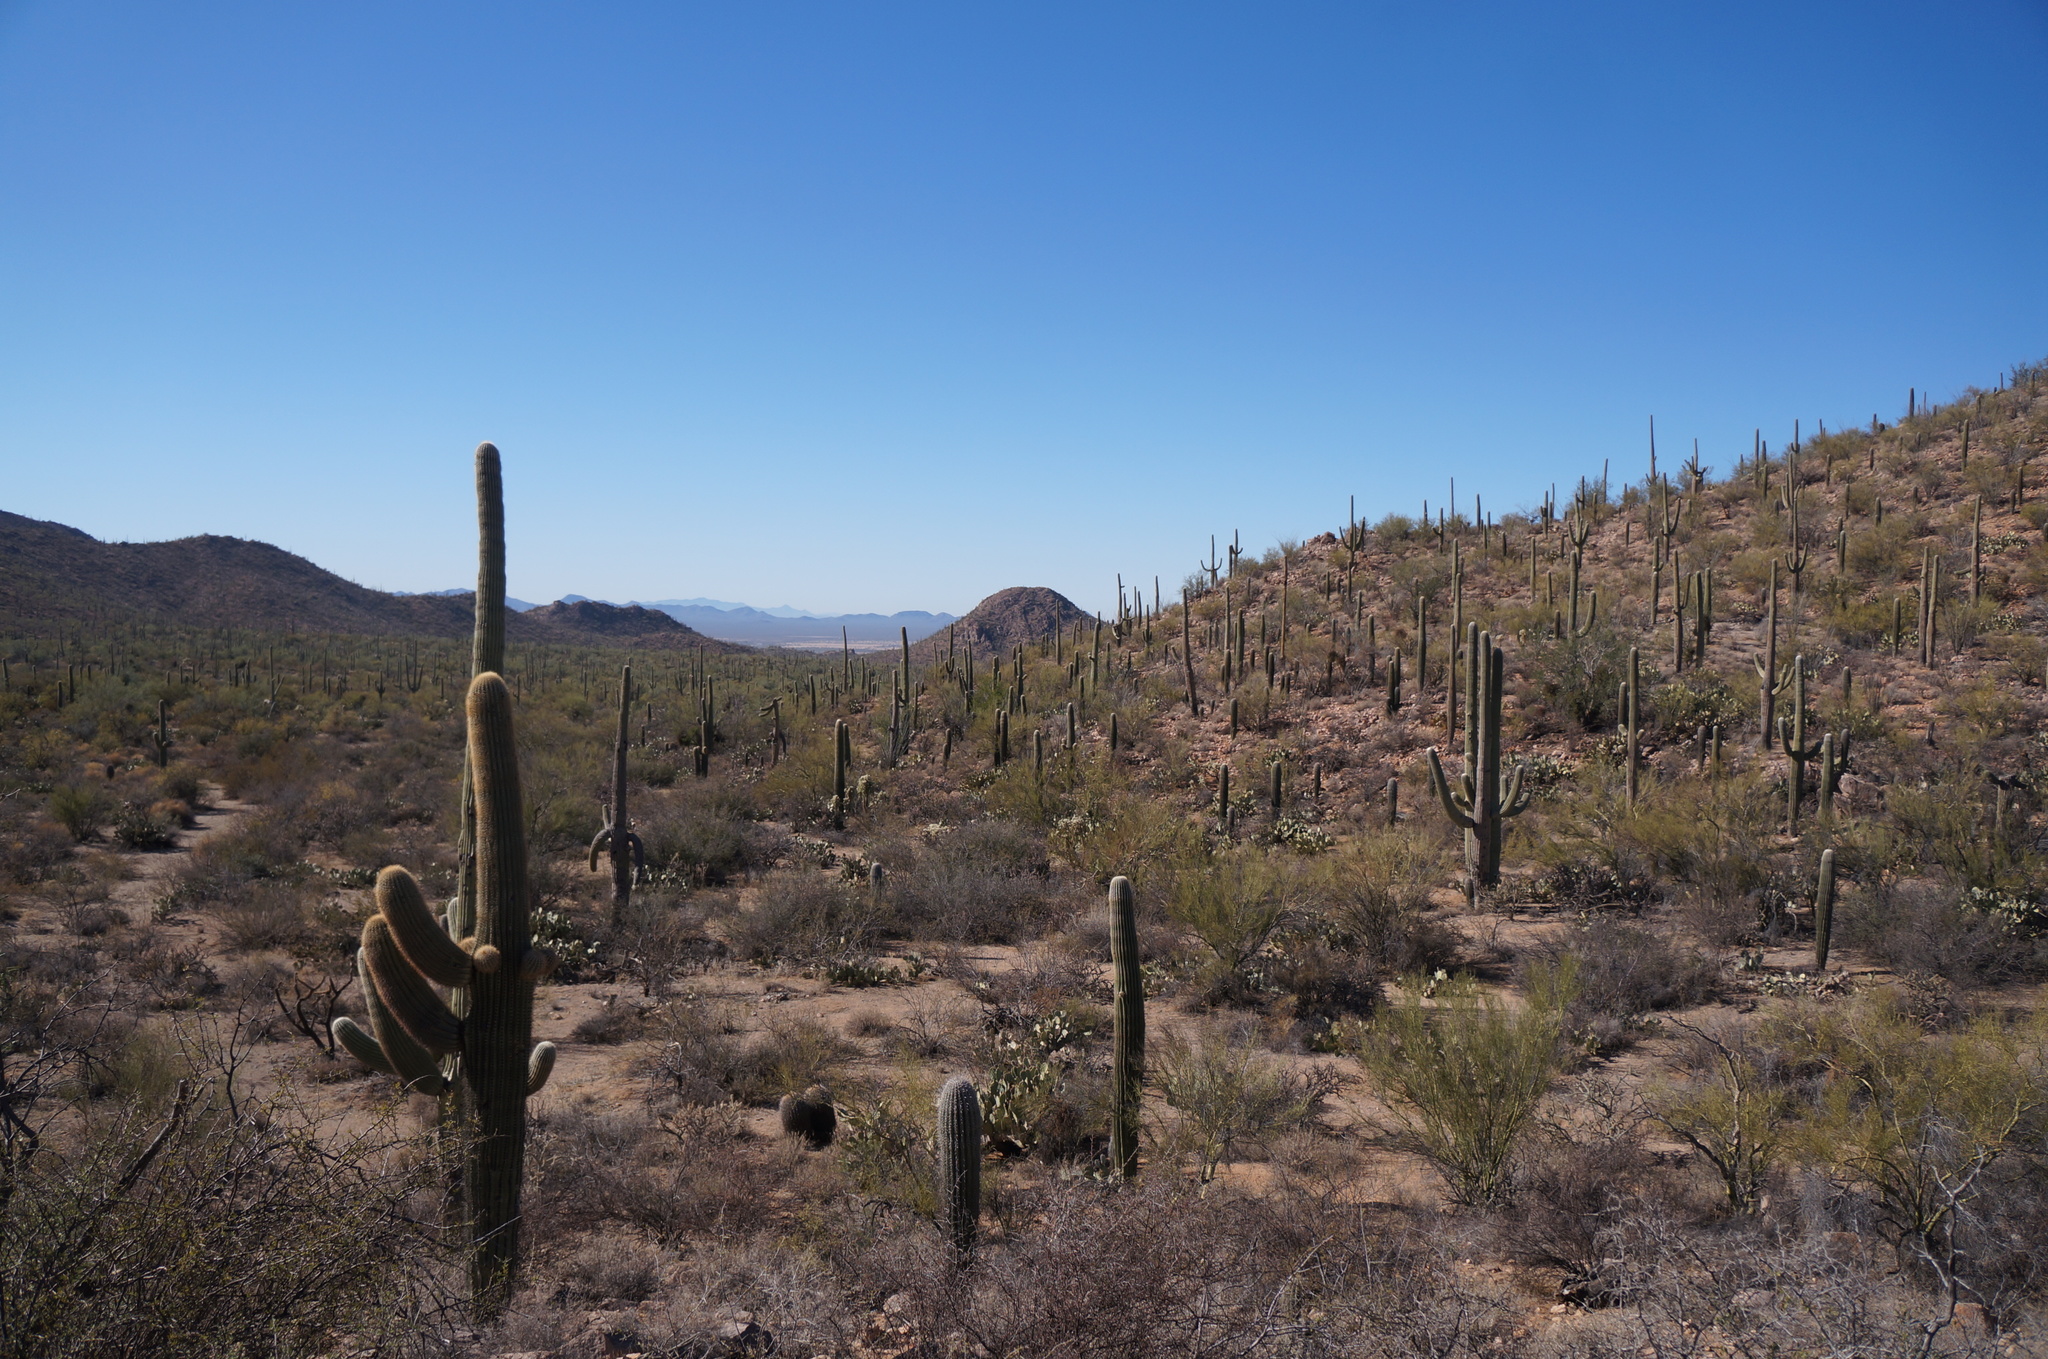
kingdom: Plantae
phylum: Tracheophyta
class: Magnoliopsida
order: Caryophyllales
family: Cactaceae
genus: Carnegiea
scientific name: Carnegiea gigantea
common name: Saguaro
